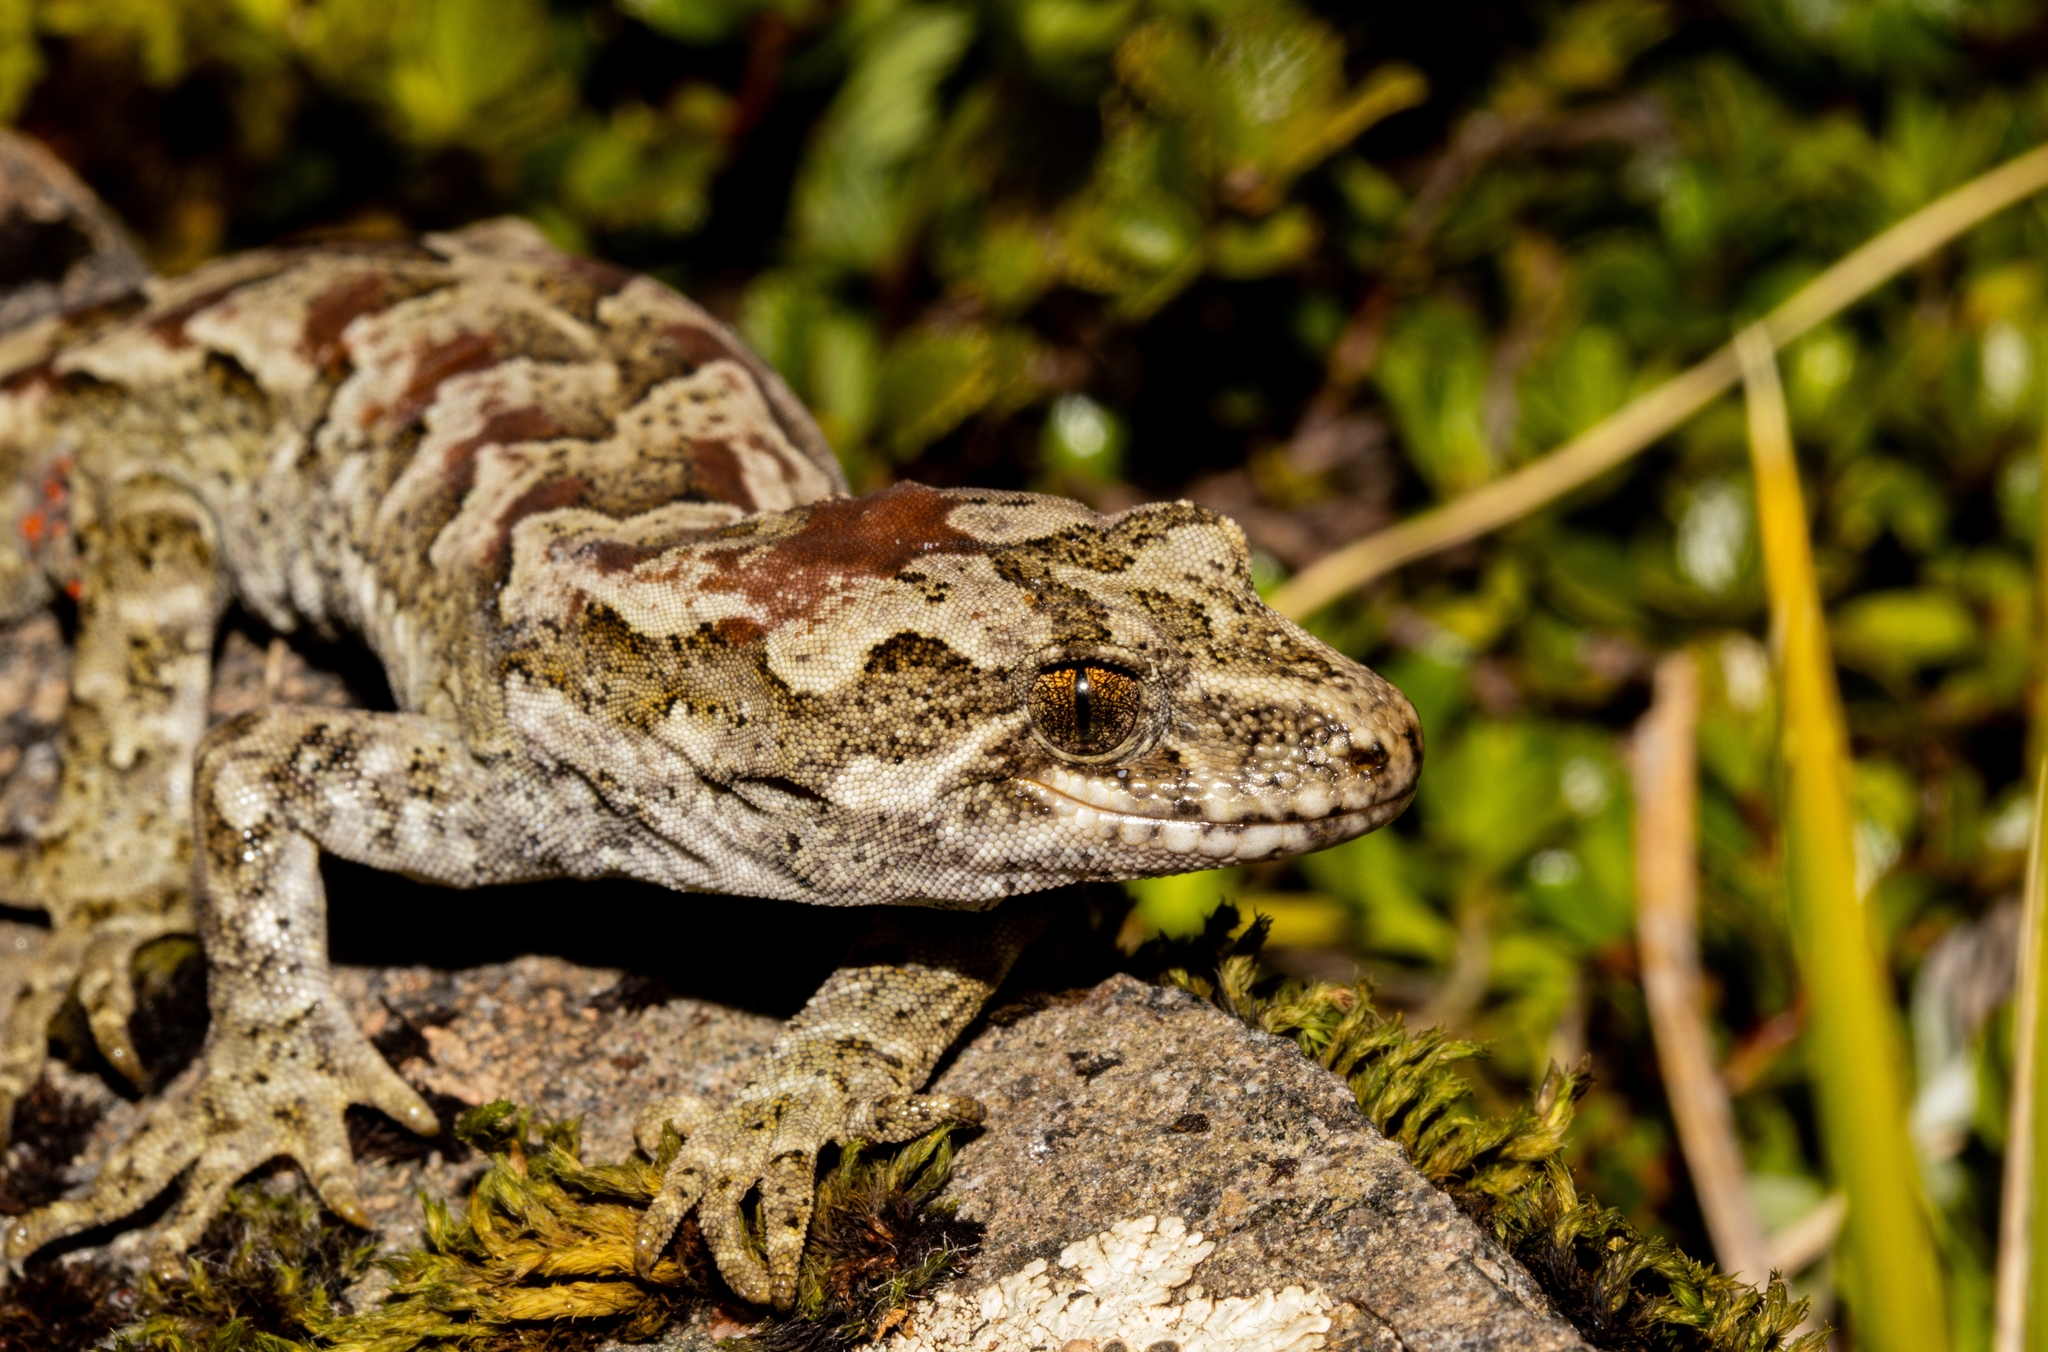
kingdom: Animalia
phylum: Chordata
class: Squamata
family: Diplodactylidae
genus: Mokopirirakau
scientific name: Mokopirirakau
